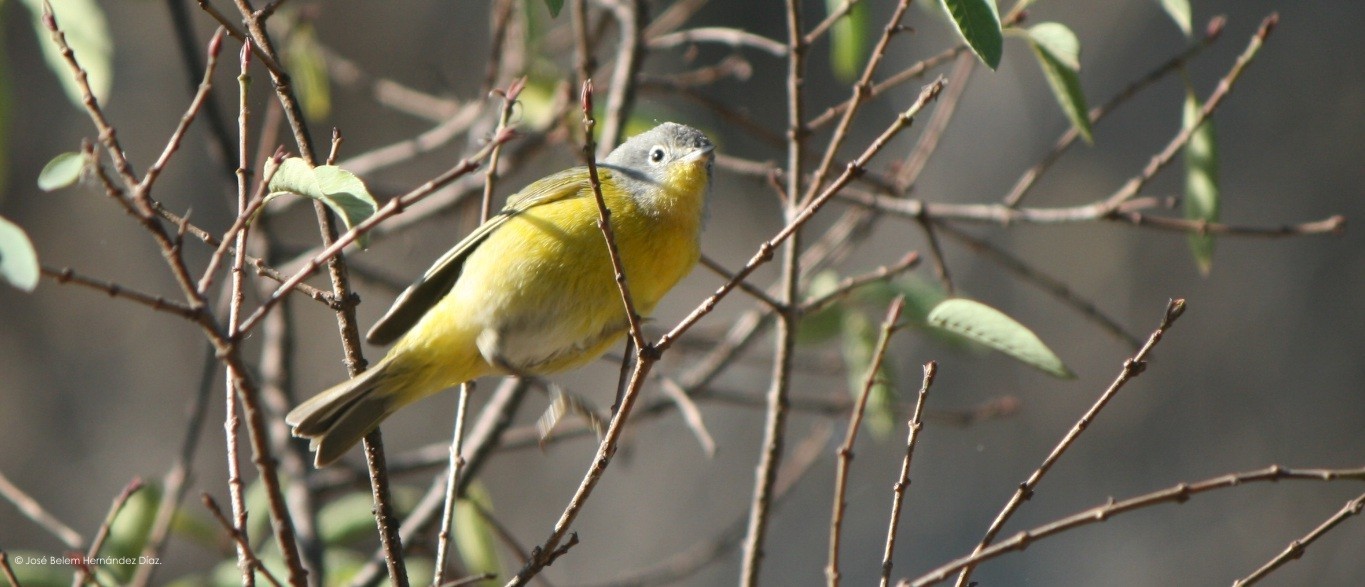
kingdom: Animalia
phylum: Chordata
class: Aves
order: Passeriformes
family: Parulidae
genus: Leiothlypis
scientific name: Leiothlypis ruficapilla
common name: Nashville warbler
